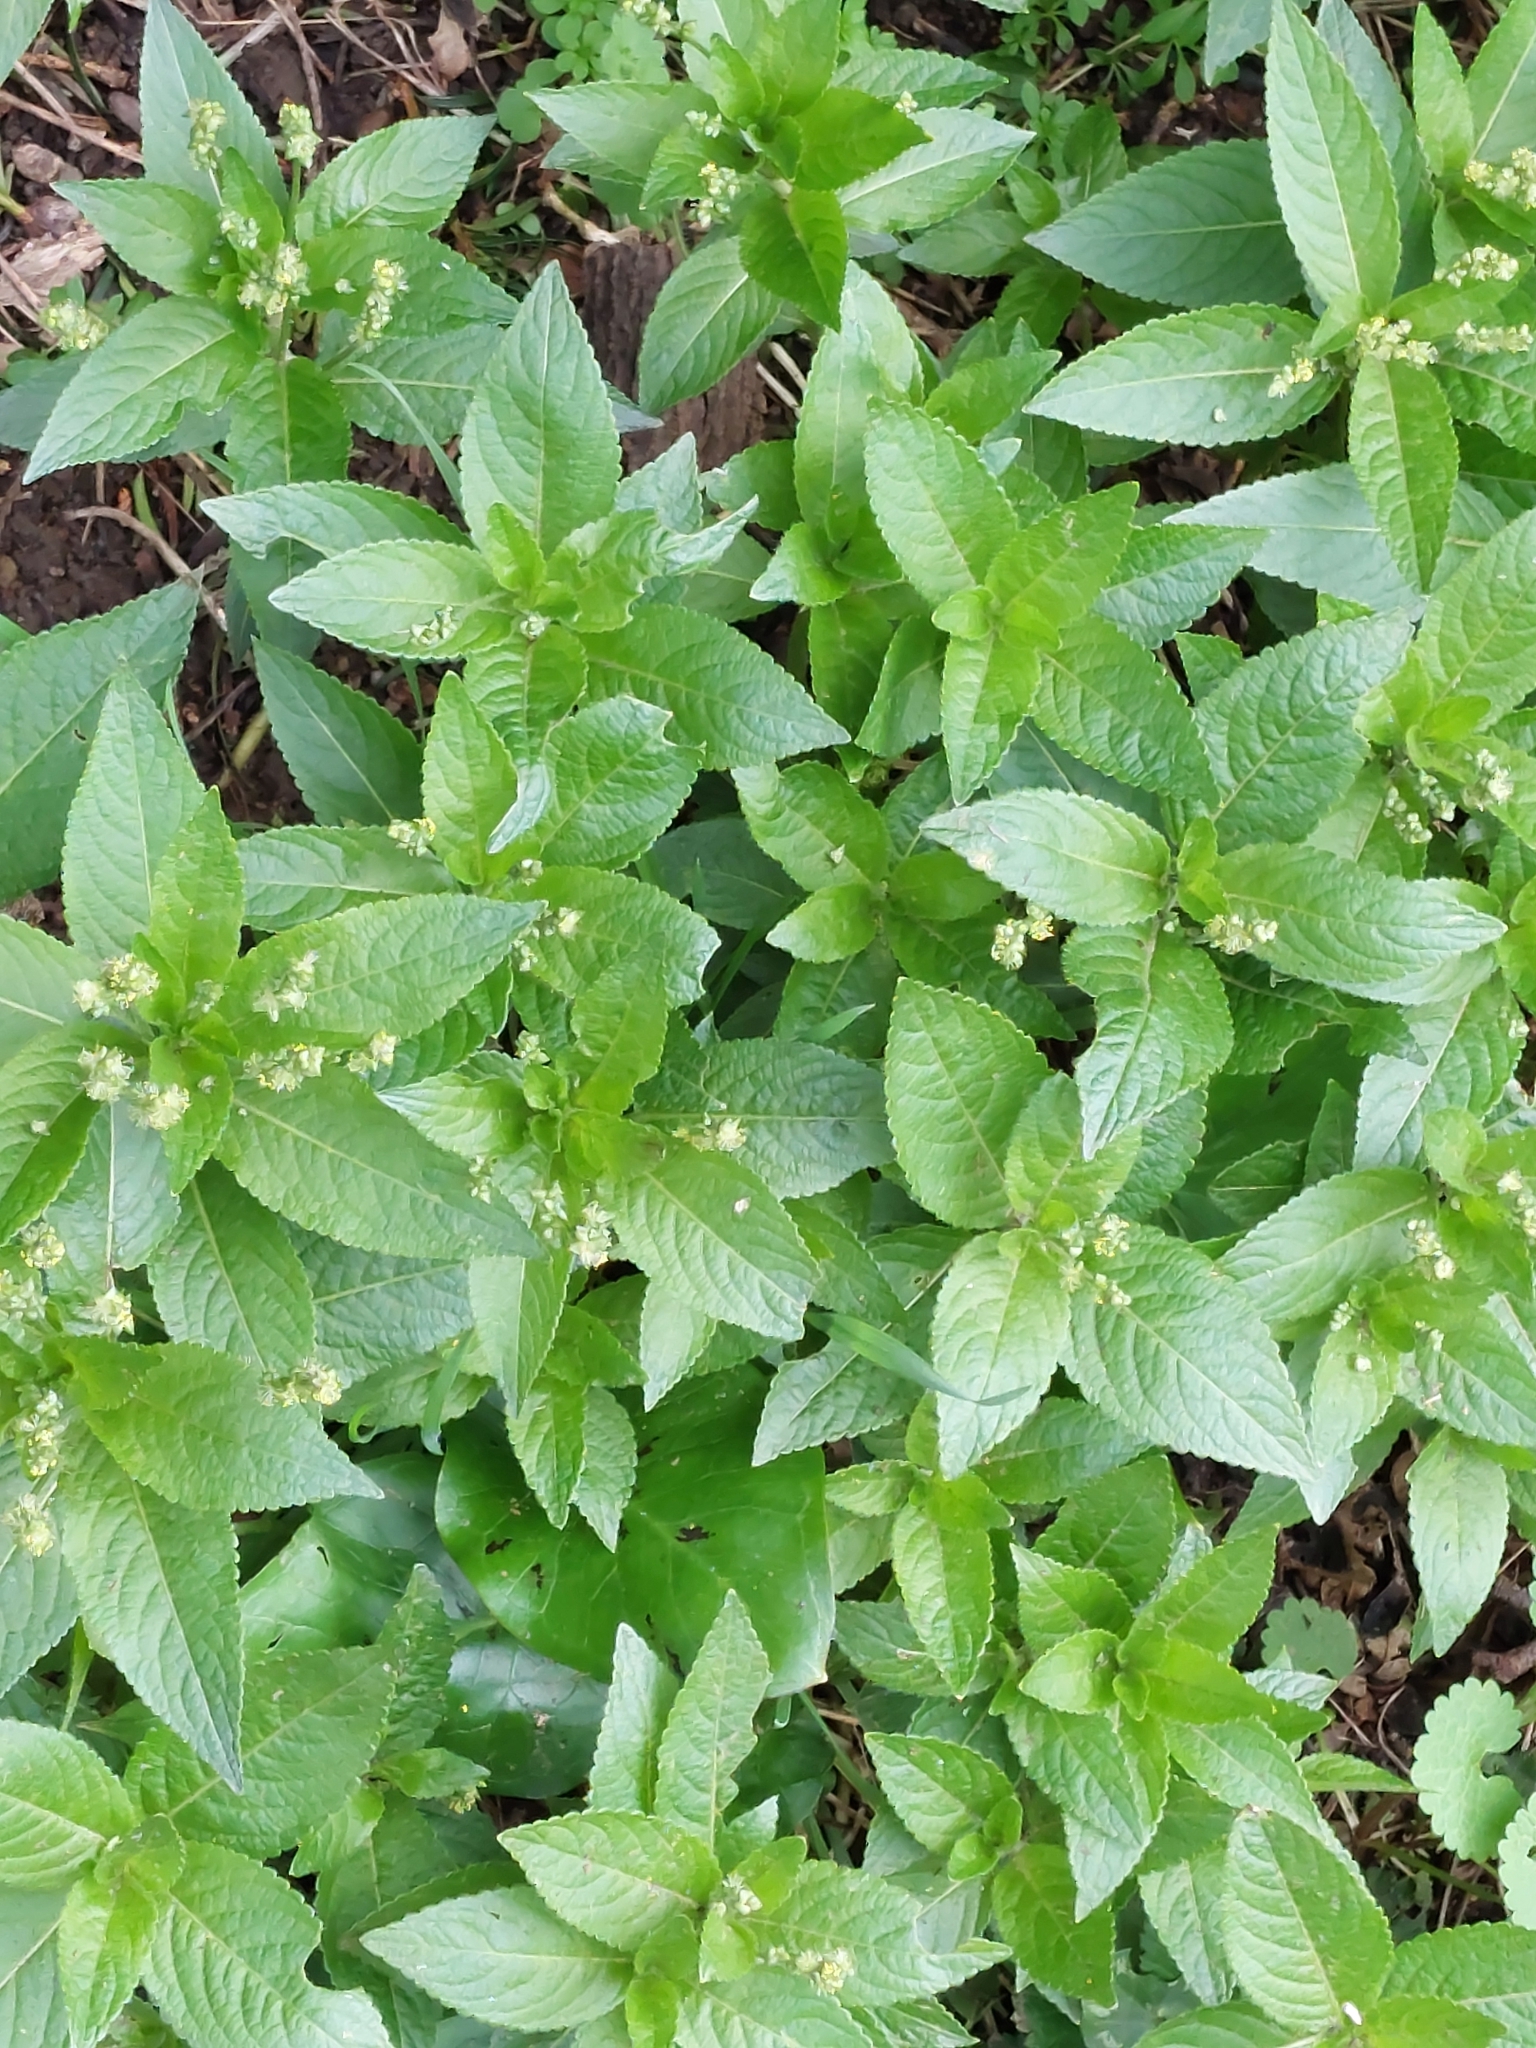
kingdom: Plantae
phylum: Tracheophyta
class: Magnoliopsida
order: Malpighiales
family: Euphorbiaceae
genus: Mercurialis
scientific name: Mercurialis perennis
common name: Dog mercury
